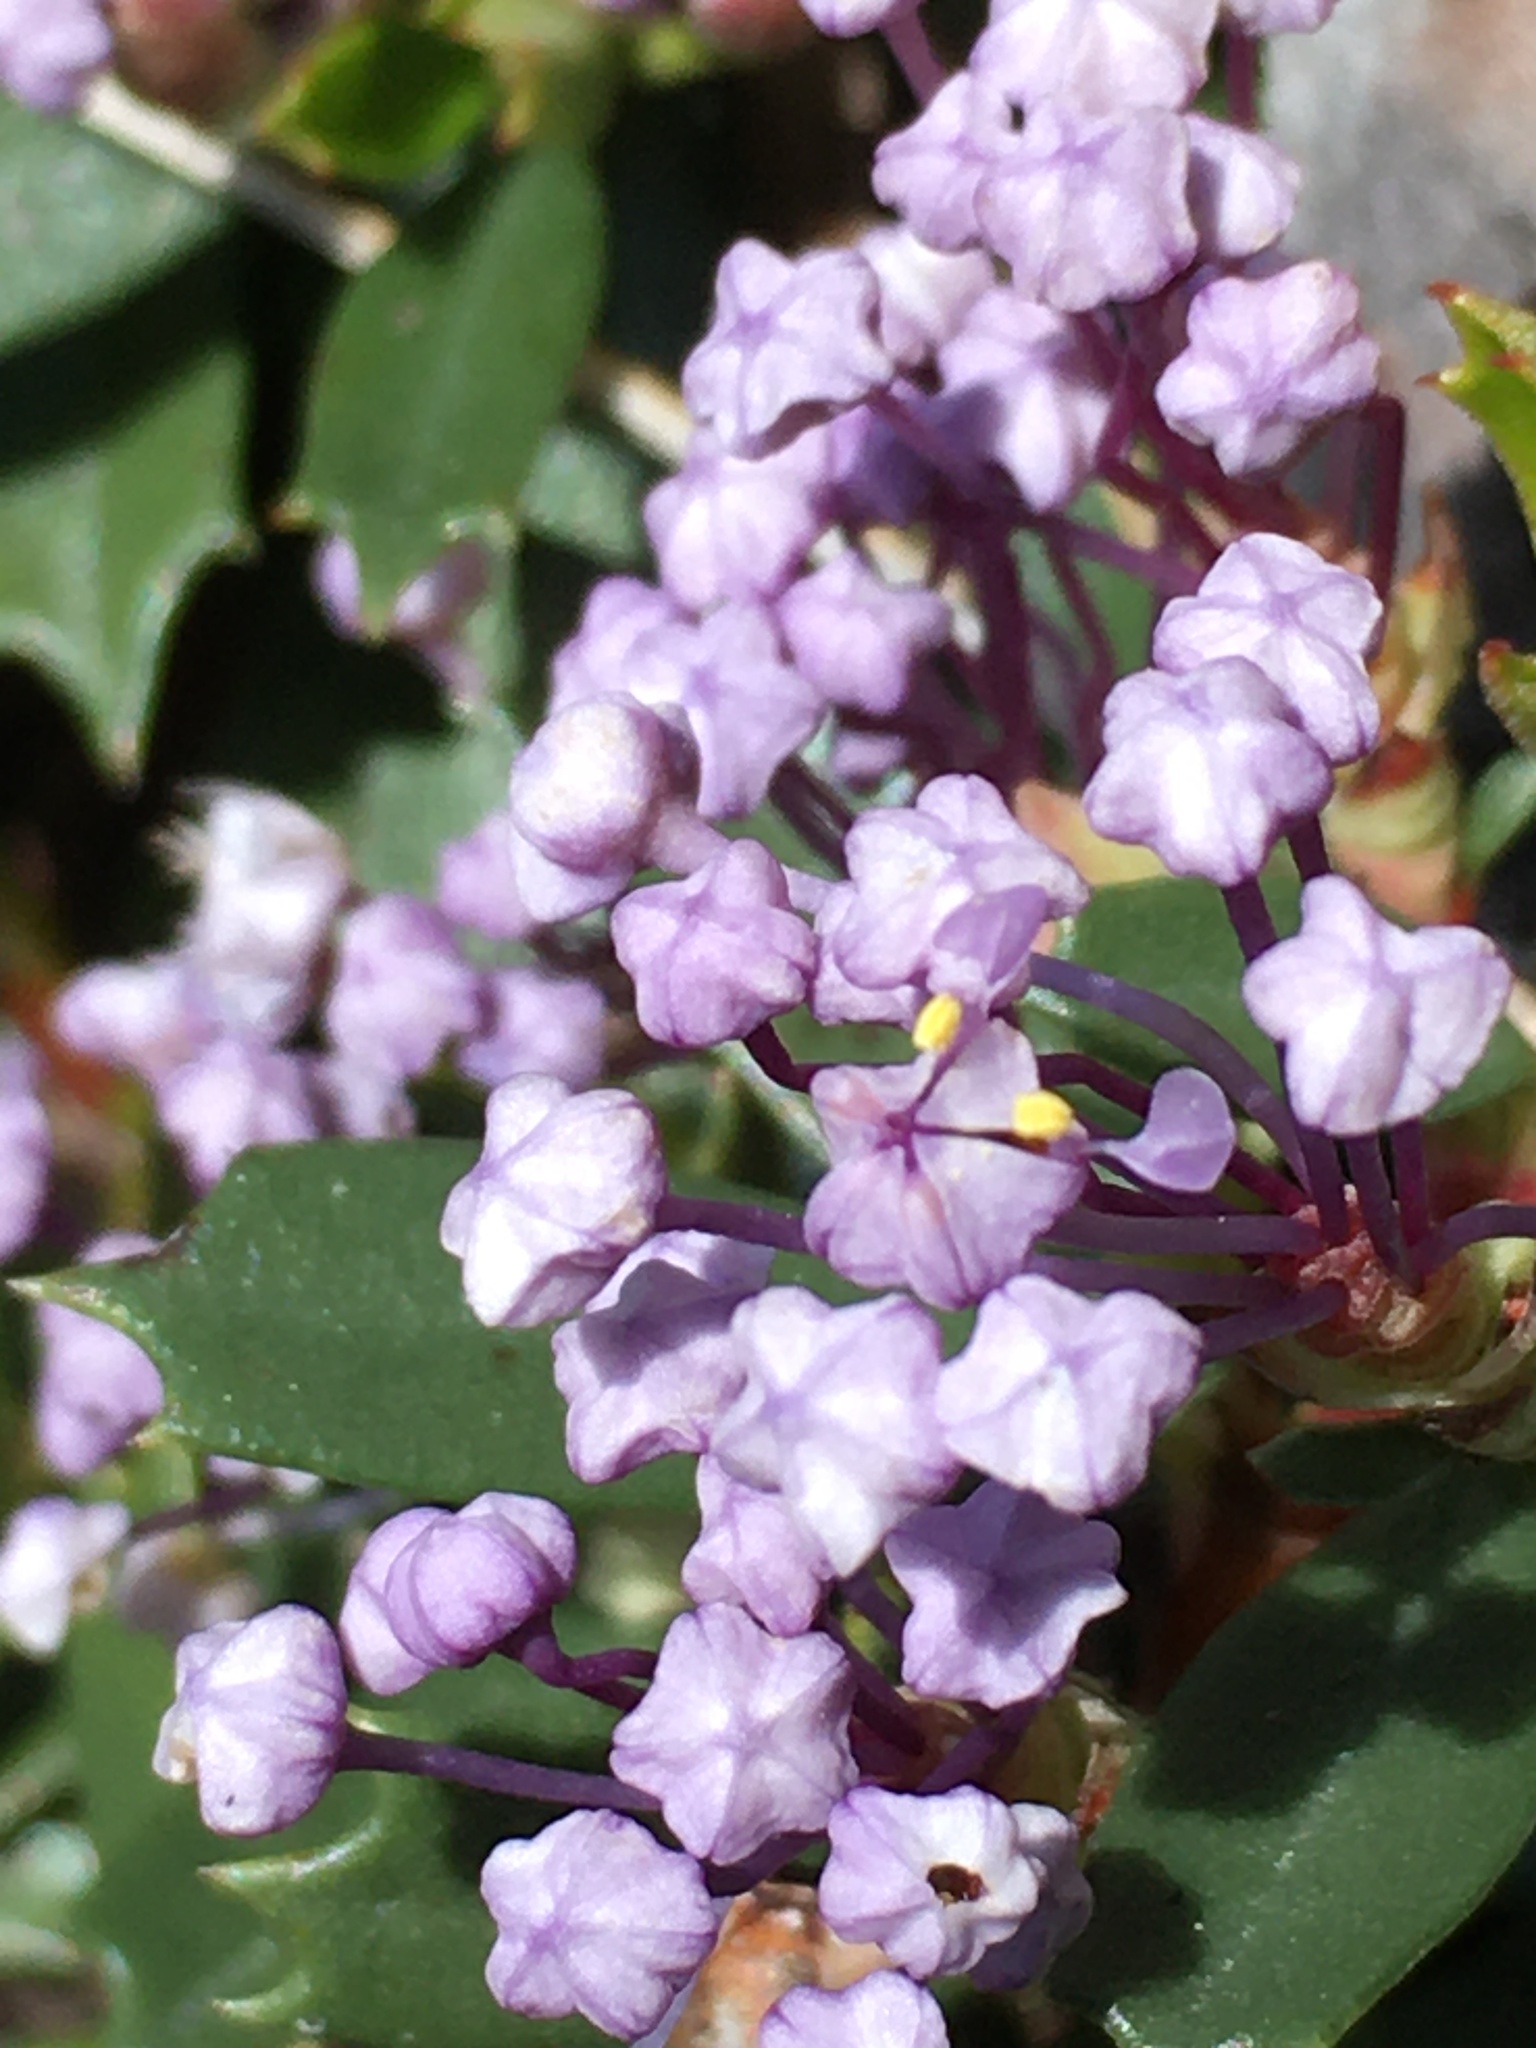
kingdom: Plantae
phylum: Tracheophyta
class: Magnoliopsida
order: Rosales
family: Rhamnaceae
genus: Ceanothus
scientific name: Ceanothus prostratus
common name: Mahala-mat
